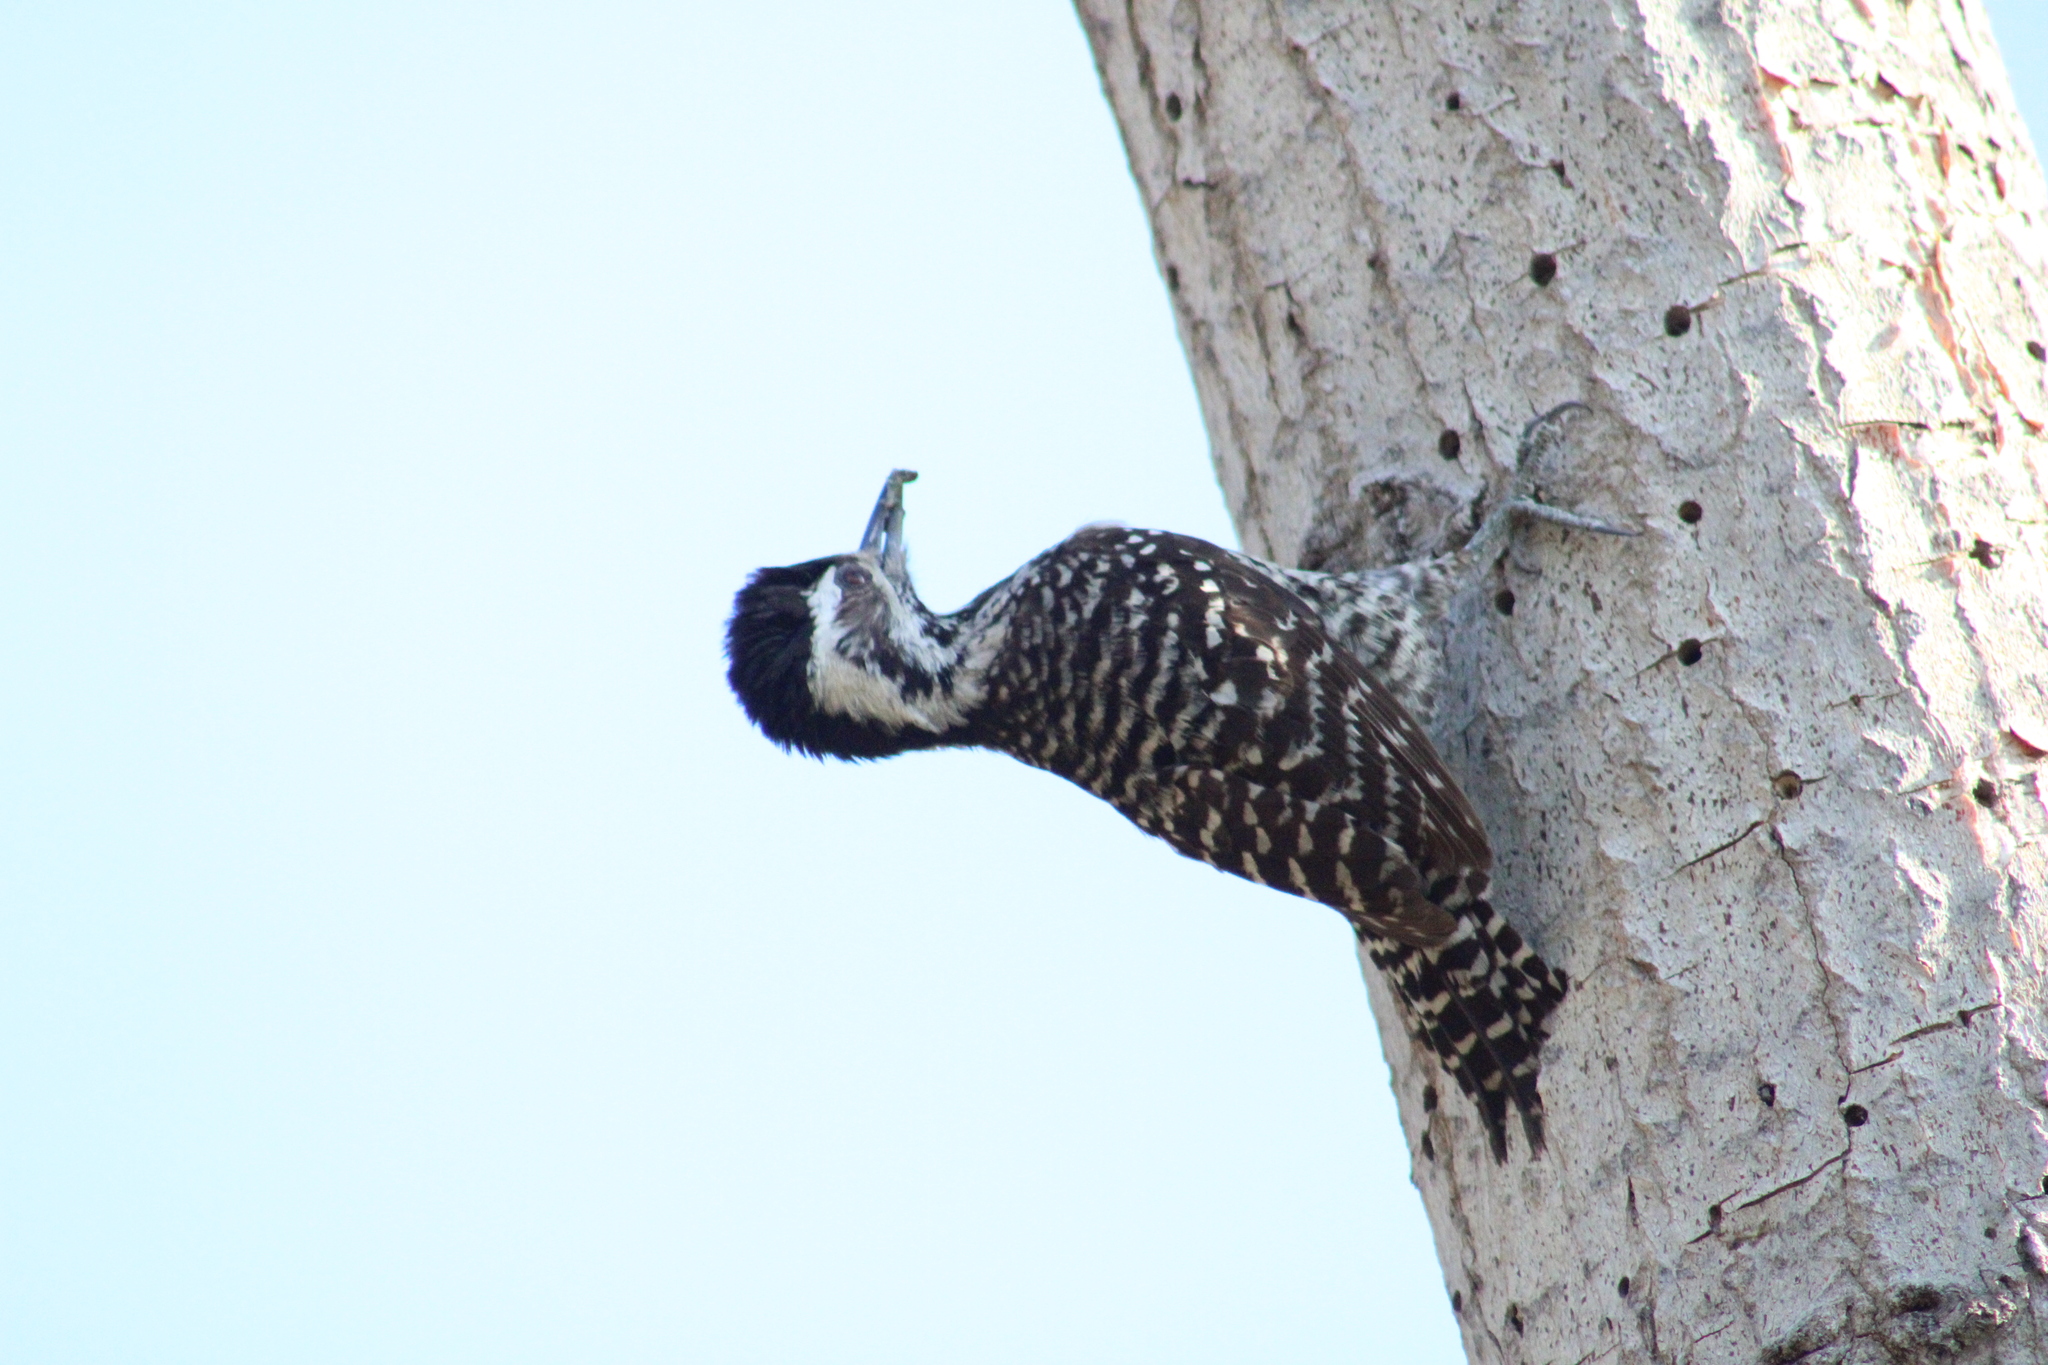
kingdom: Animalia
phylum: Chordata
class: Aves
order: Piciformes
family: Picidae
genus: Veniliornis
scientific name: Veniliornis lignarius
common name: Striped woodpecker
